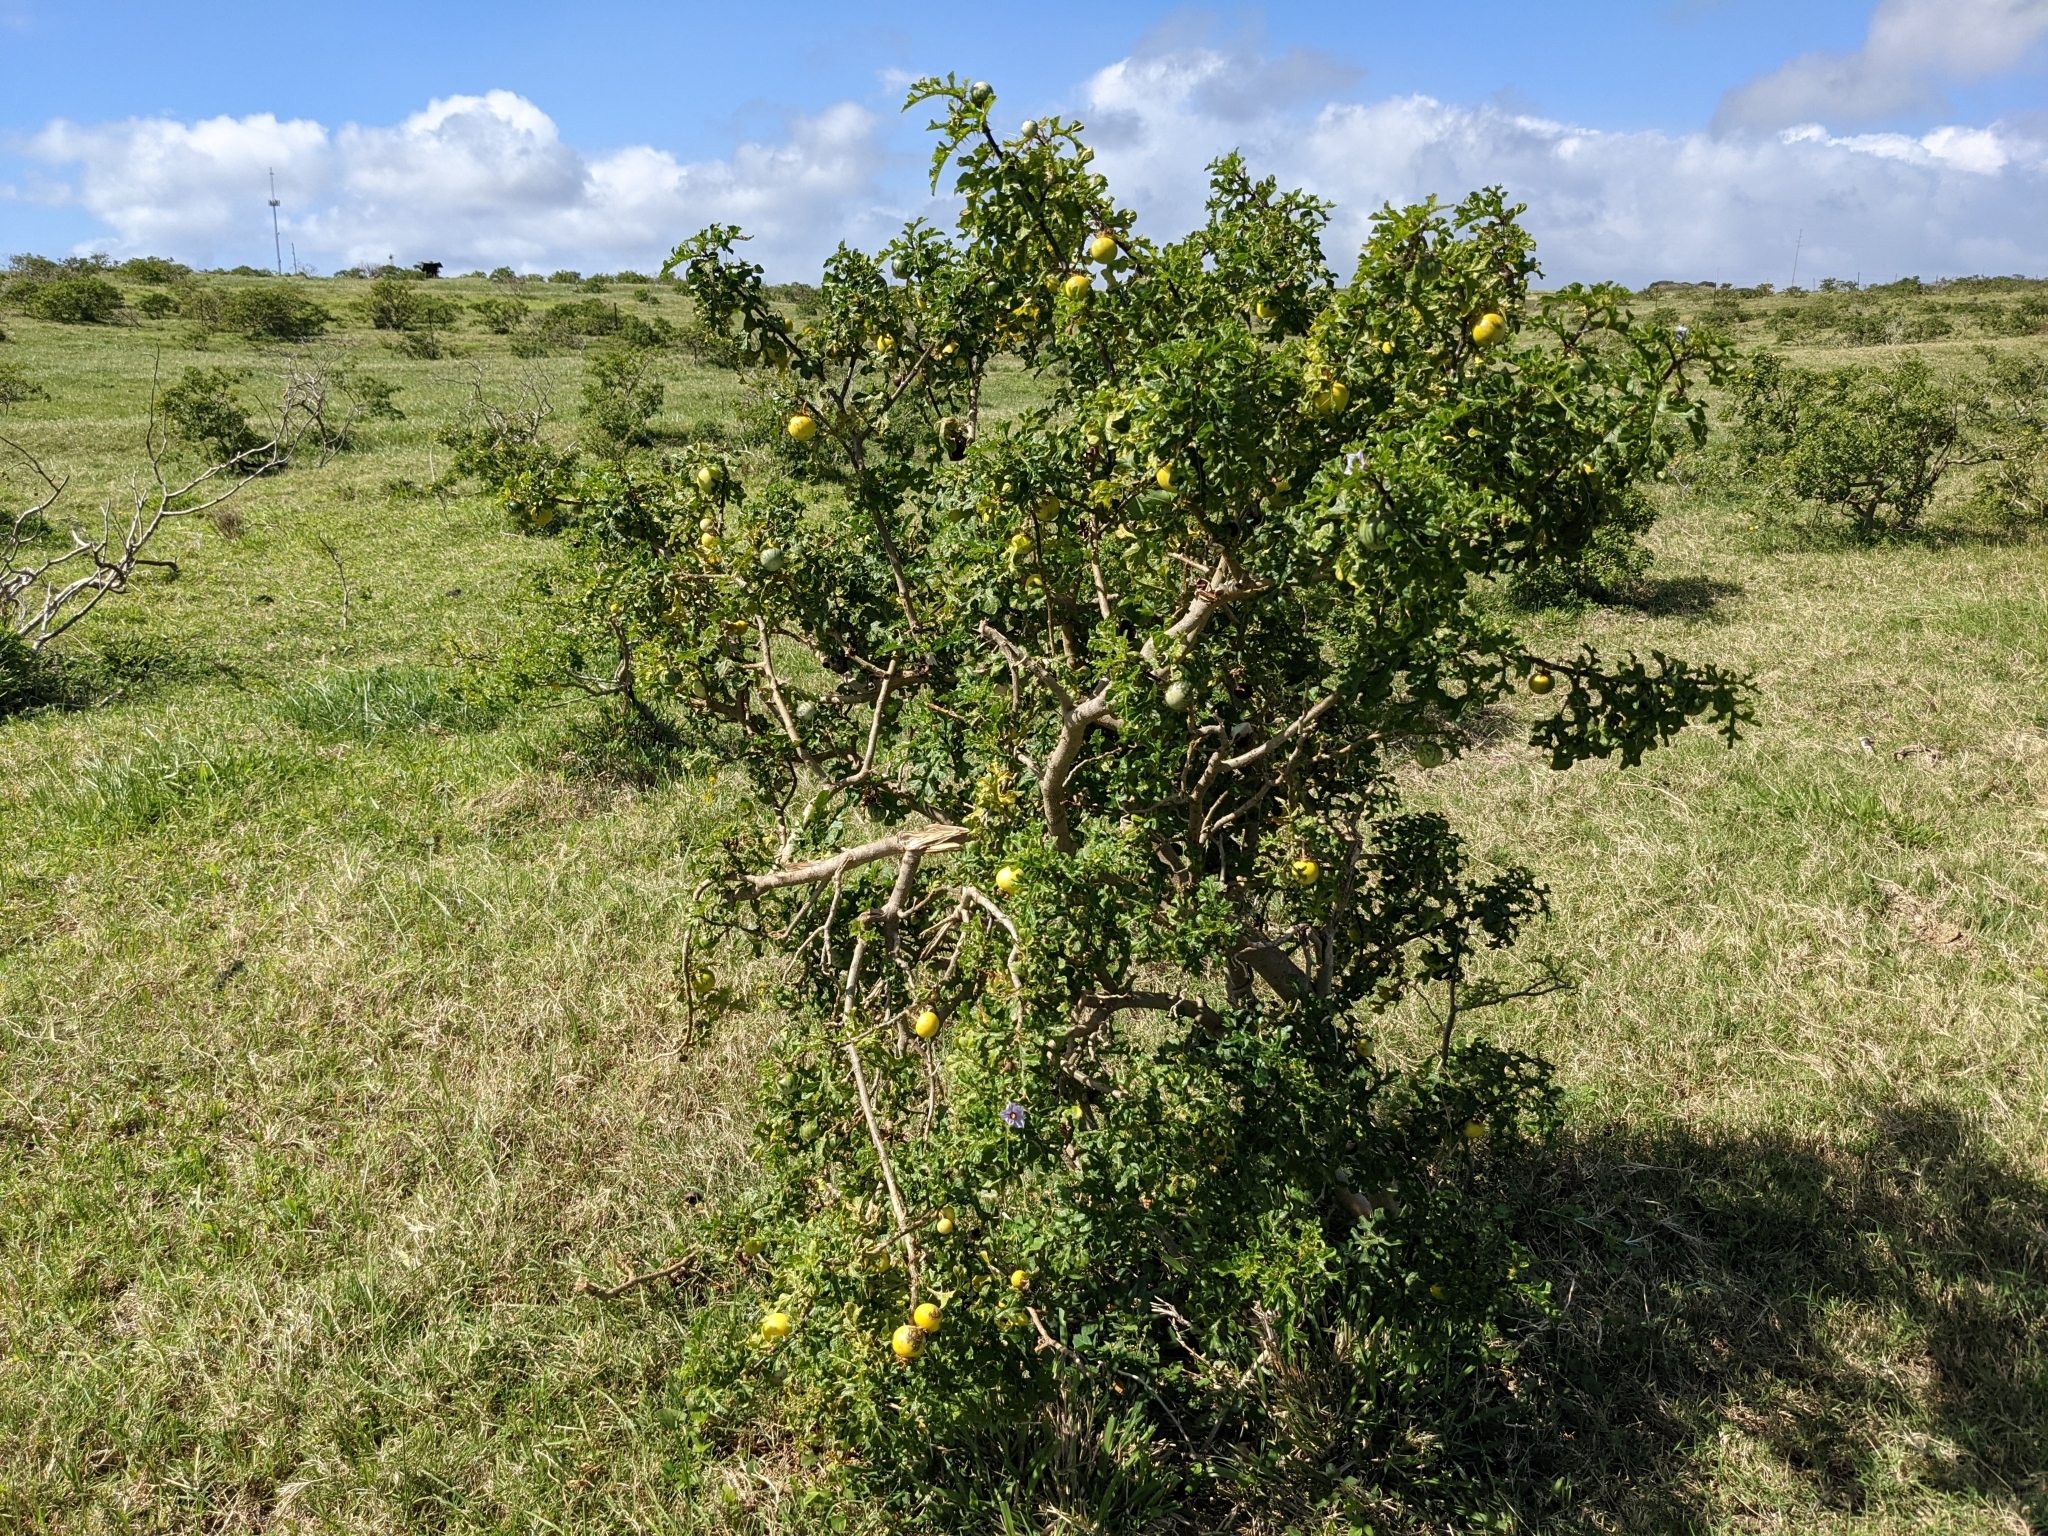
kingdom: Plantae
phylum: Tracheophyta
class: Magnoliopsida
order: Solanales
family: Solanaceae
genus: Solanum
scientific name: Solanum linnaeanum
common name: Nightshade
